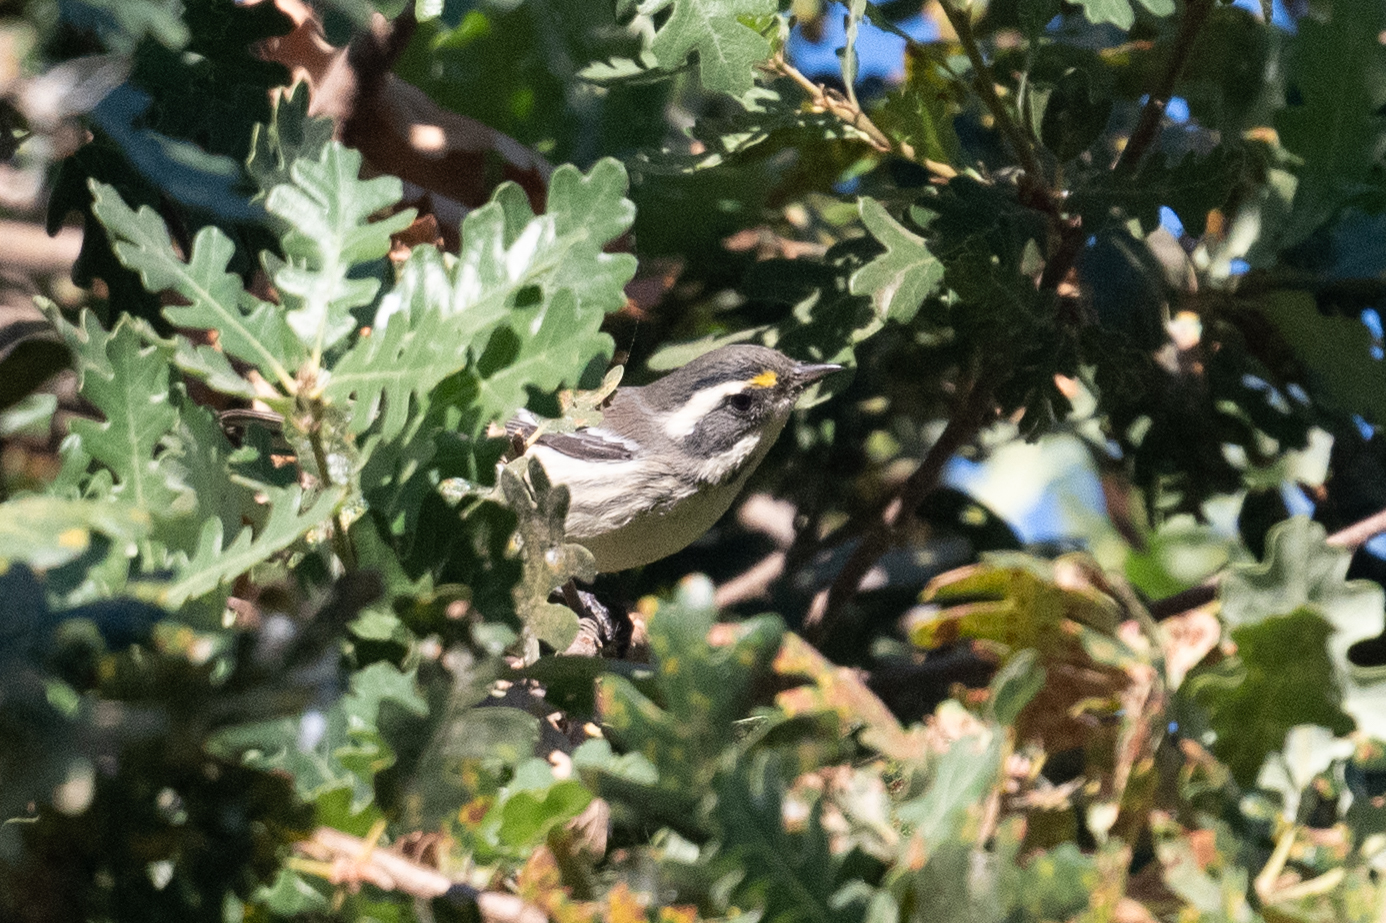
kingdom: Animalia
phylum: Chordata
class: Aves
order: Passeriformes
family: Parulidae
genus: Setophaga
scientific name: Setophaga nigrescens
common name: Black-throated gray warbler
